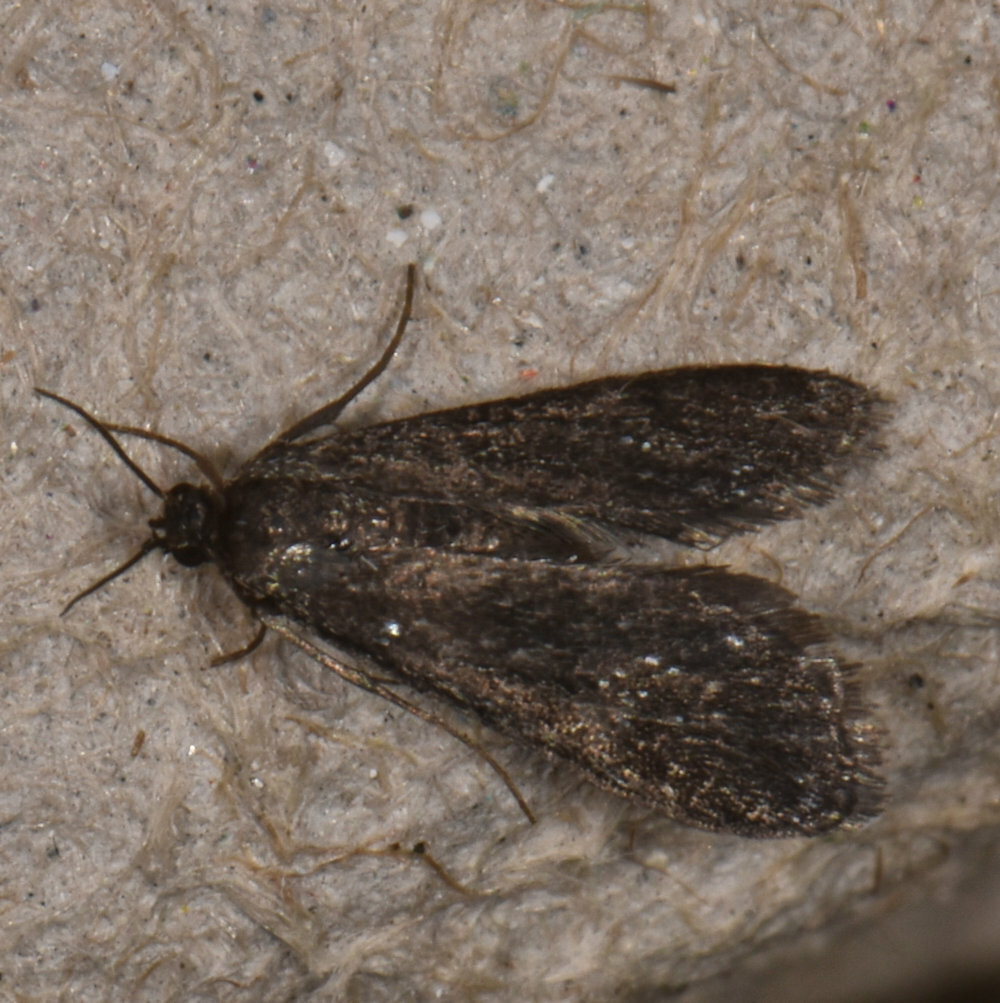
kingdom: Animalia
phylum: Arthropoda
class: Insecta
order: Lepidoptera
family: Crambidae
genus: Elophila
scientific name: Elophila tinealis
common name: Black duckweed moth
